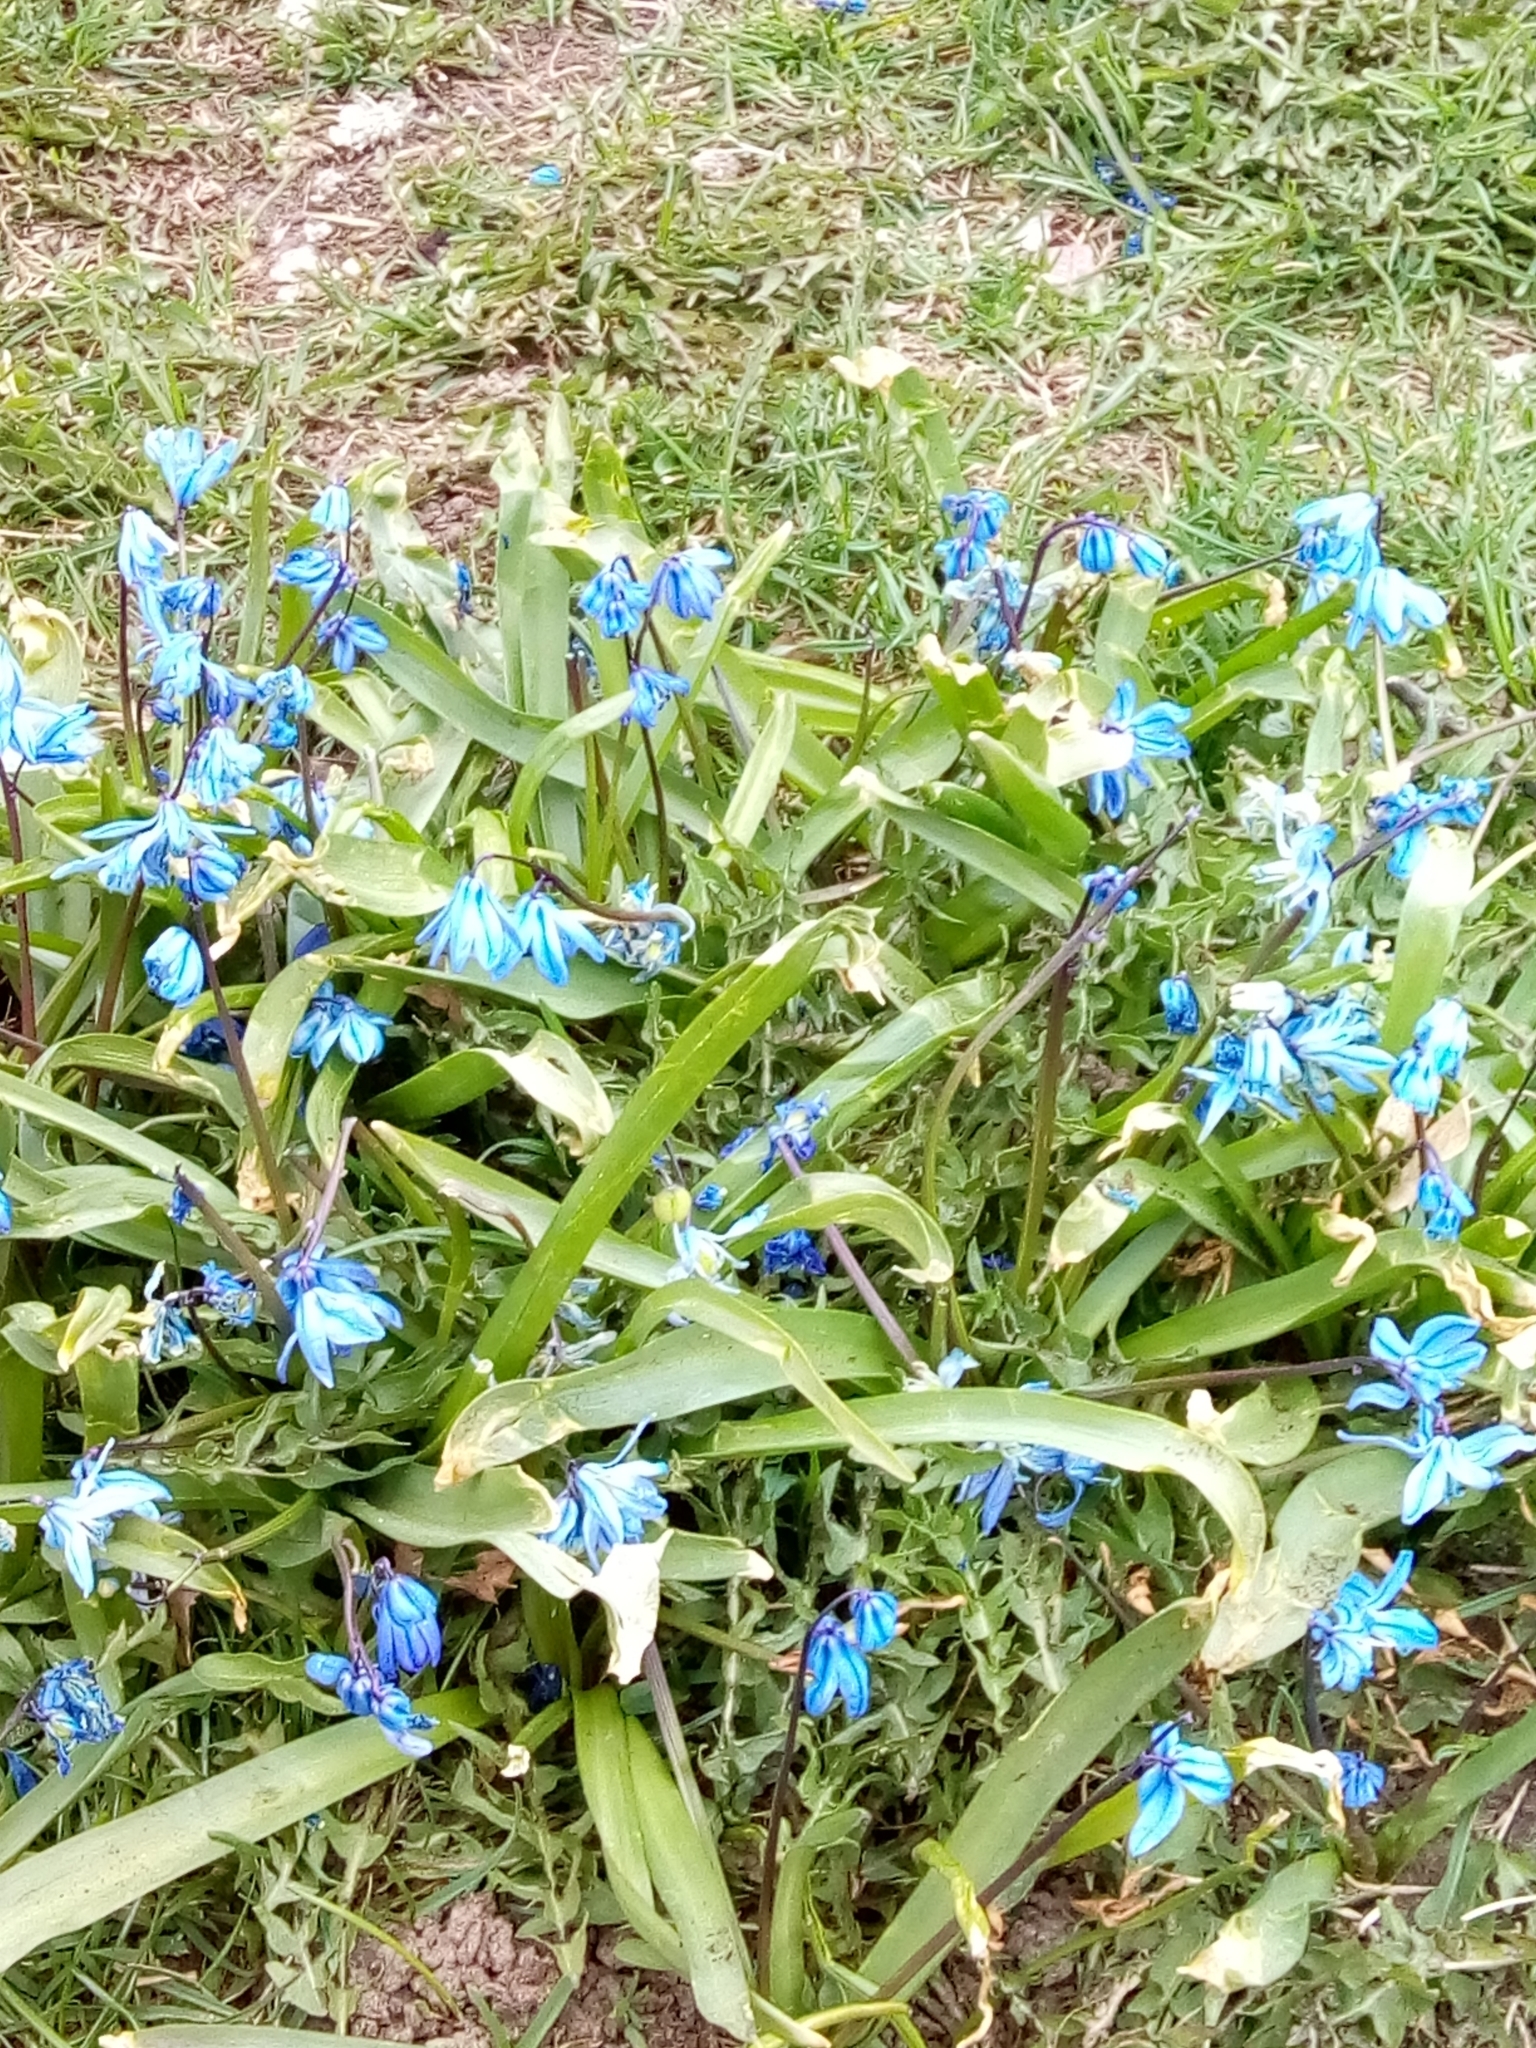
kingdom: Plantae
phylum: Tracheophyta
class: Liliopsida
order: Asparagales
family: Asparagaceae
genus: Scilla
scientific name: Scilla siberica
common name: Siberian squill
